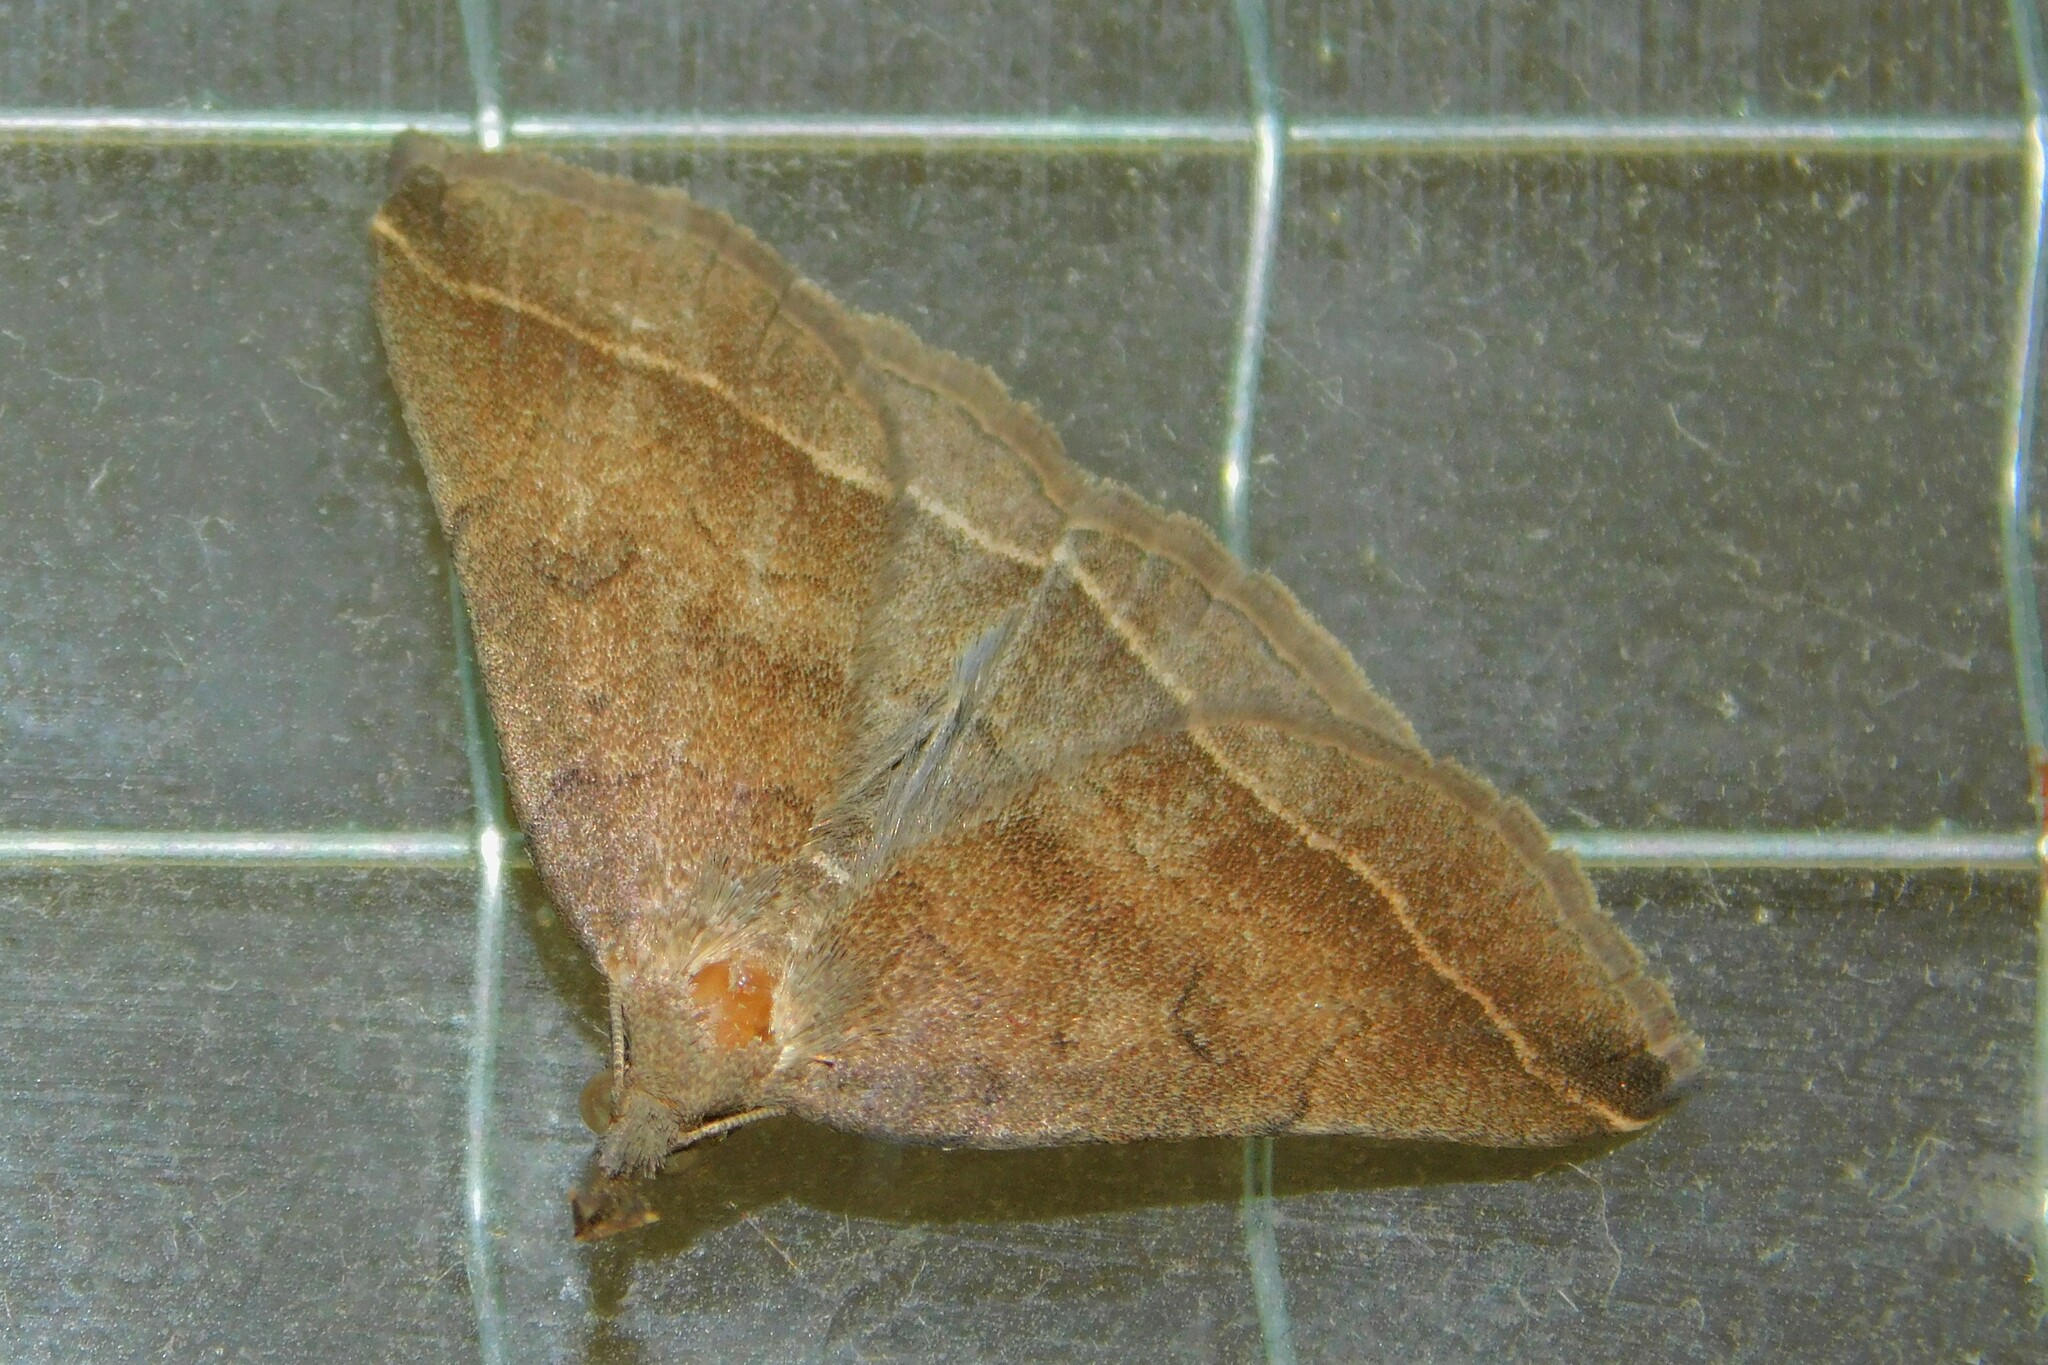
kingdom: Animalia
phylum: Arthropoda
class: Insecta
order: Lepidoptera
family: Erebidae
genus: Pechipogo
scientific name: Pechipogo plumigeralis
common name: Plumed fan-foot
